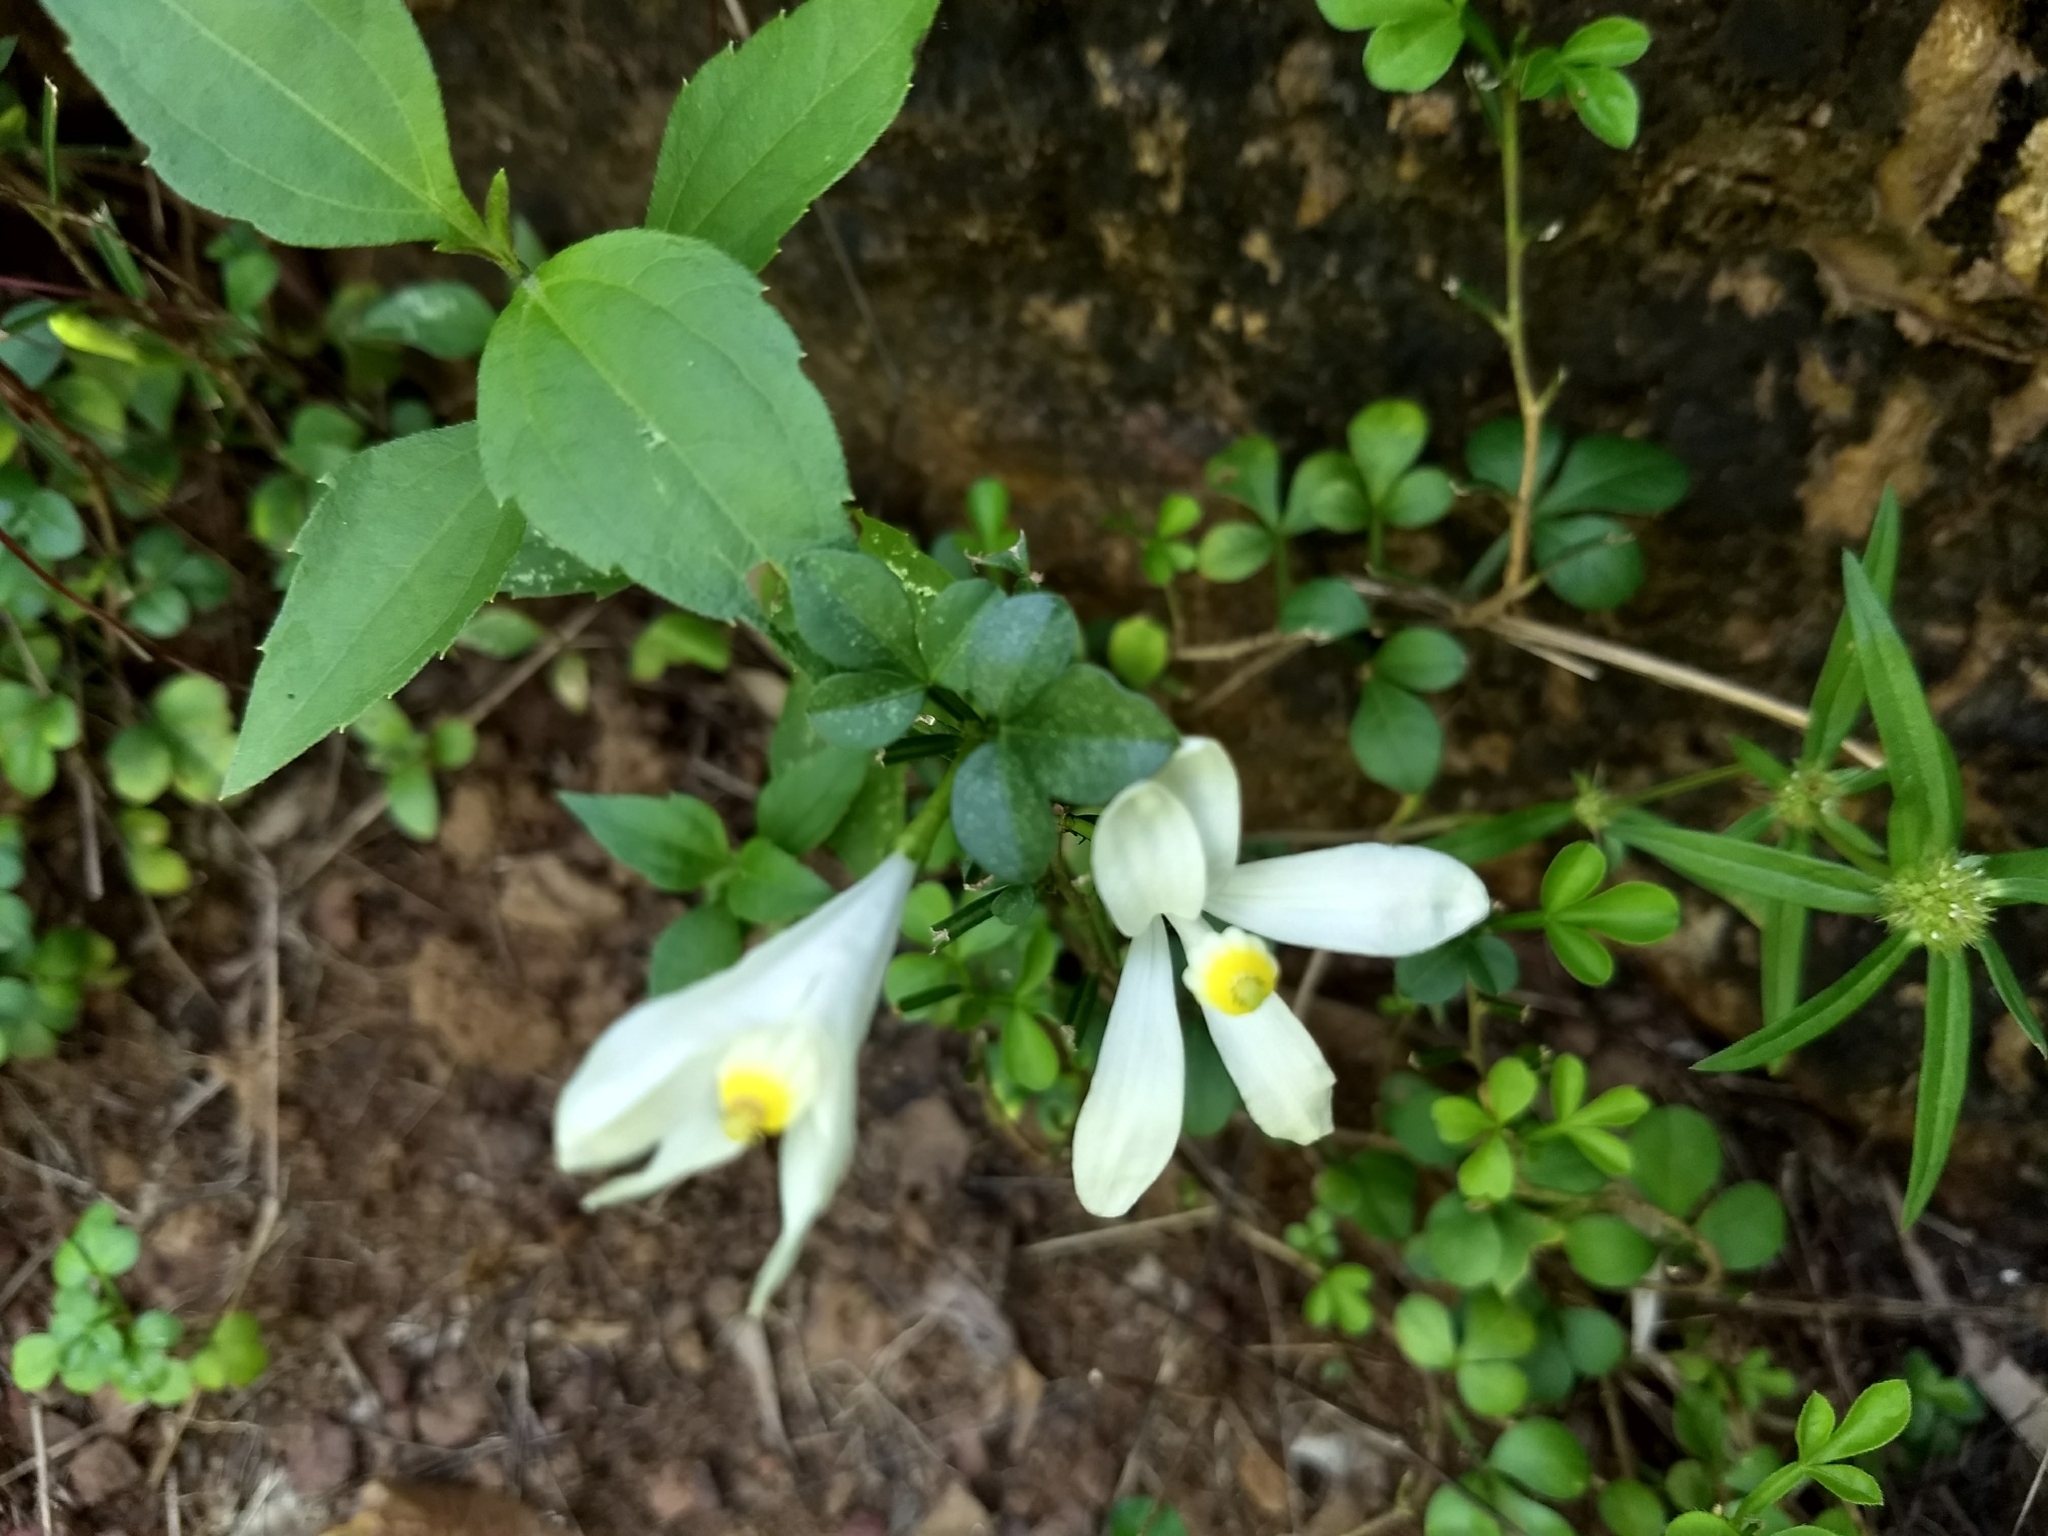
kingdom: Plantae
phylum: Tracheophyta
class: Magnoliopsida
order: Sapindales
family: Meliaceae
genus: Naregamia
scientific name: Naregamia alata
